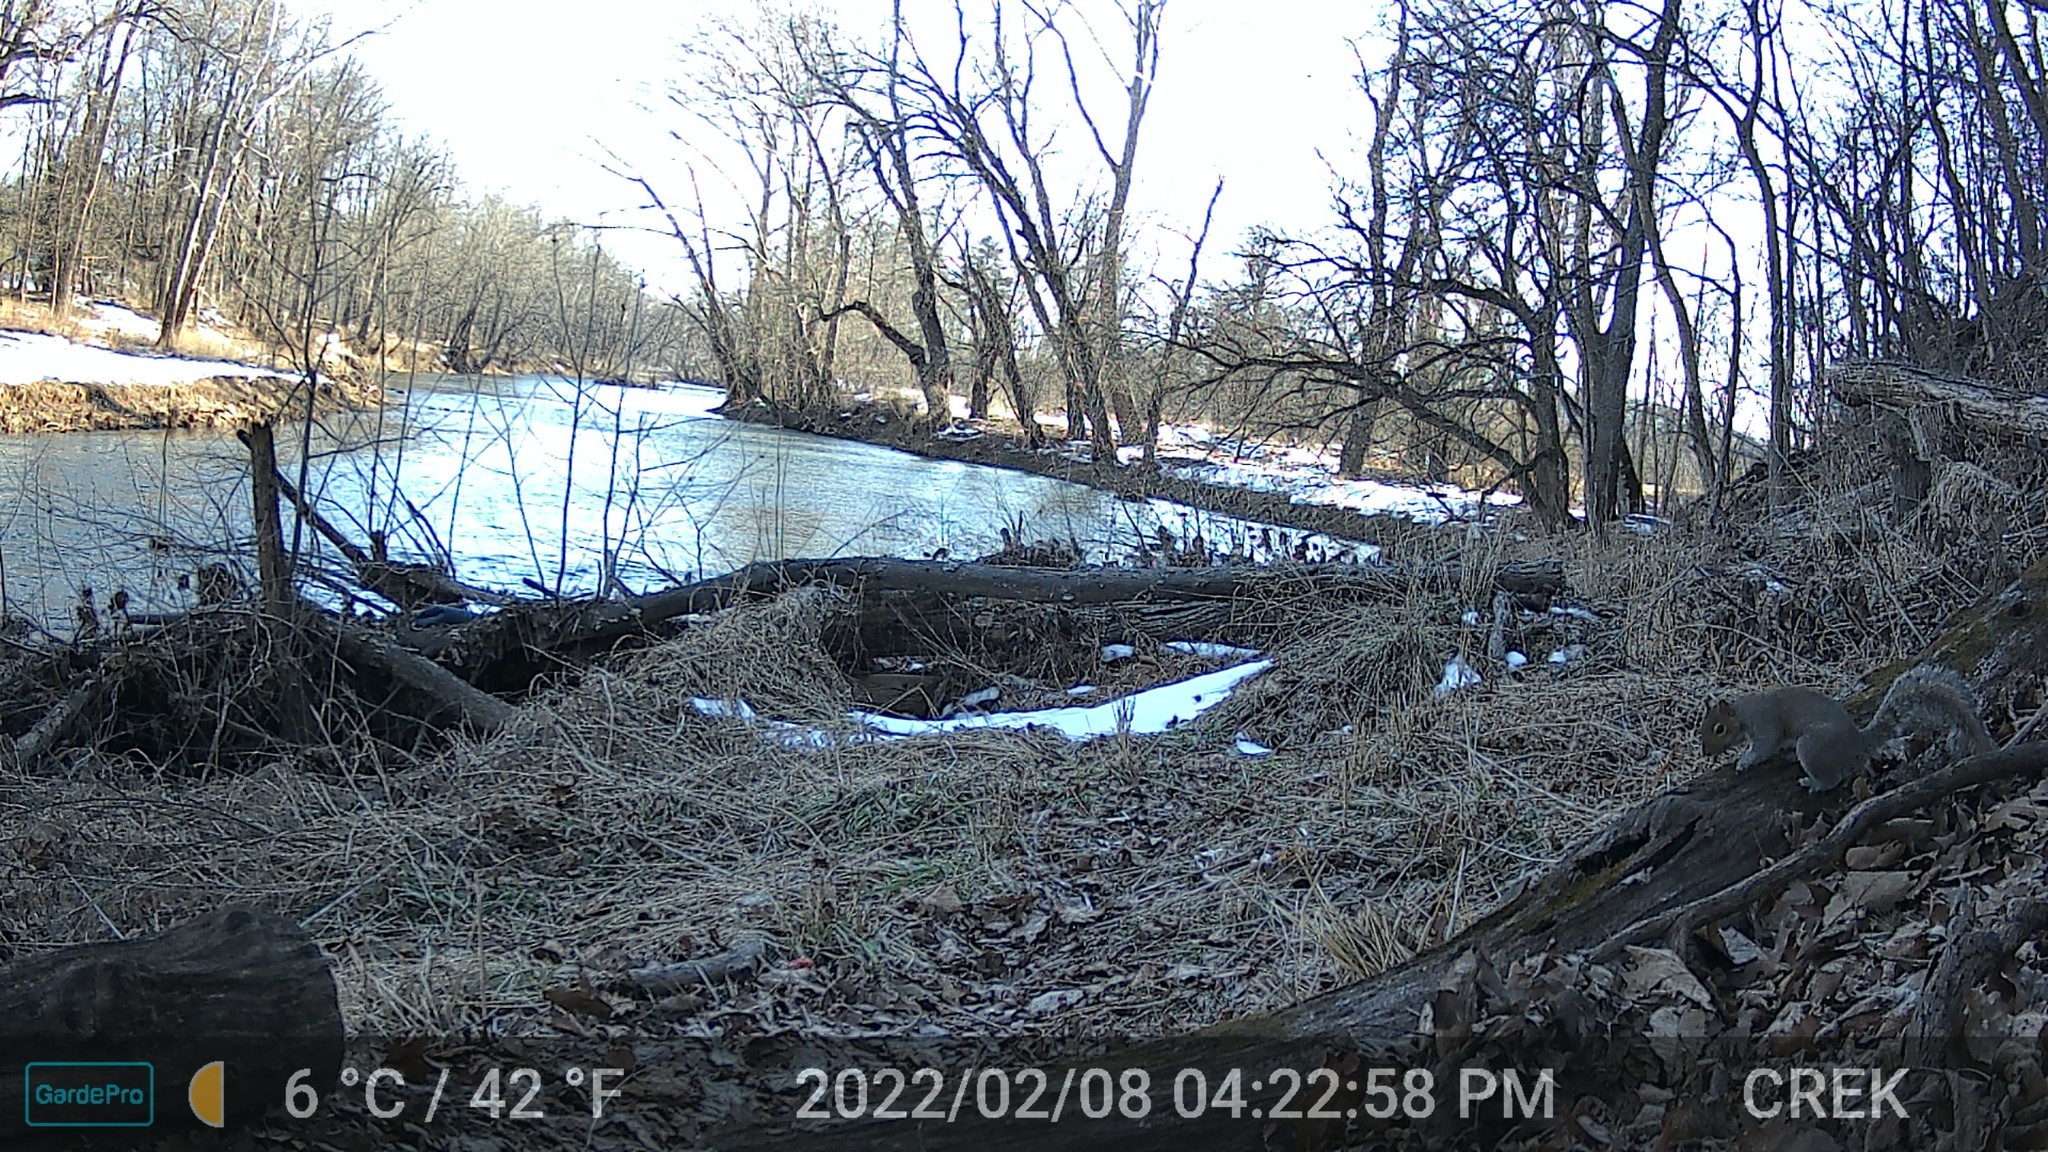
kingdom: Animalia
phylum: Chordata
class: Mammalia
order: Rodentia
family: Sciuridae
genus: Sciurus
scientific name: Sciurus carolinensis
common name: Eastern gray squirrel
